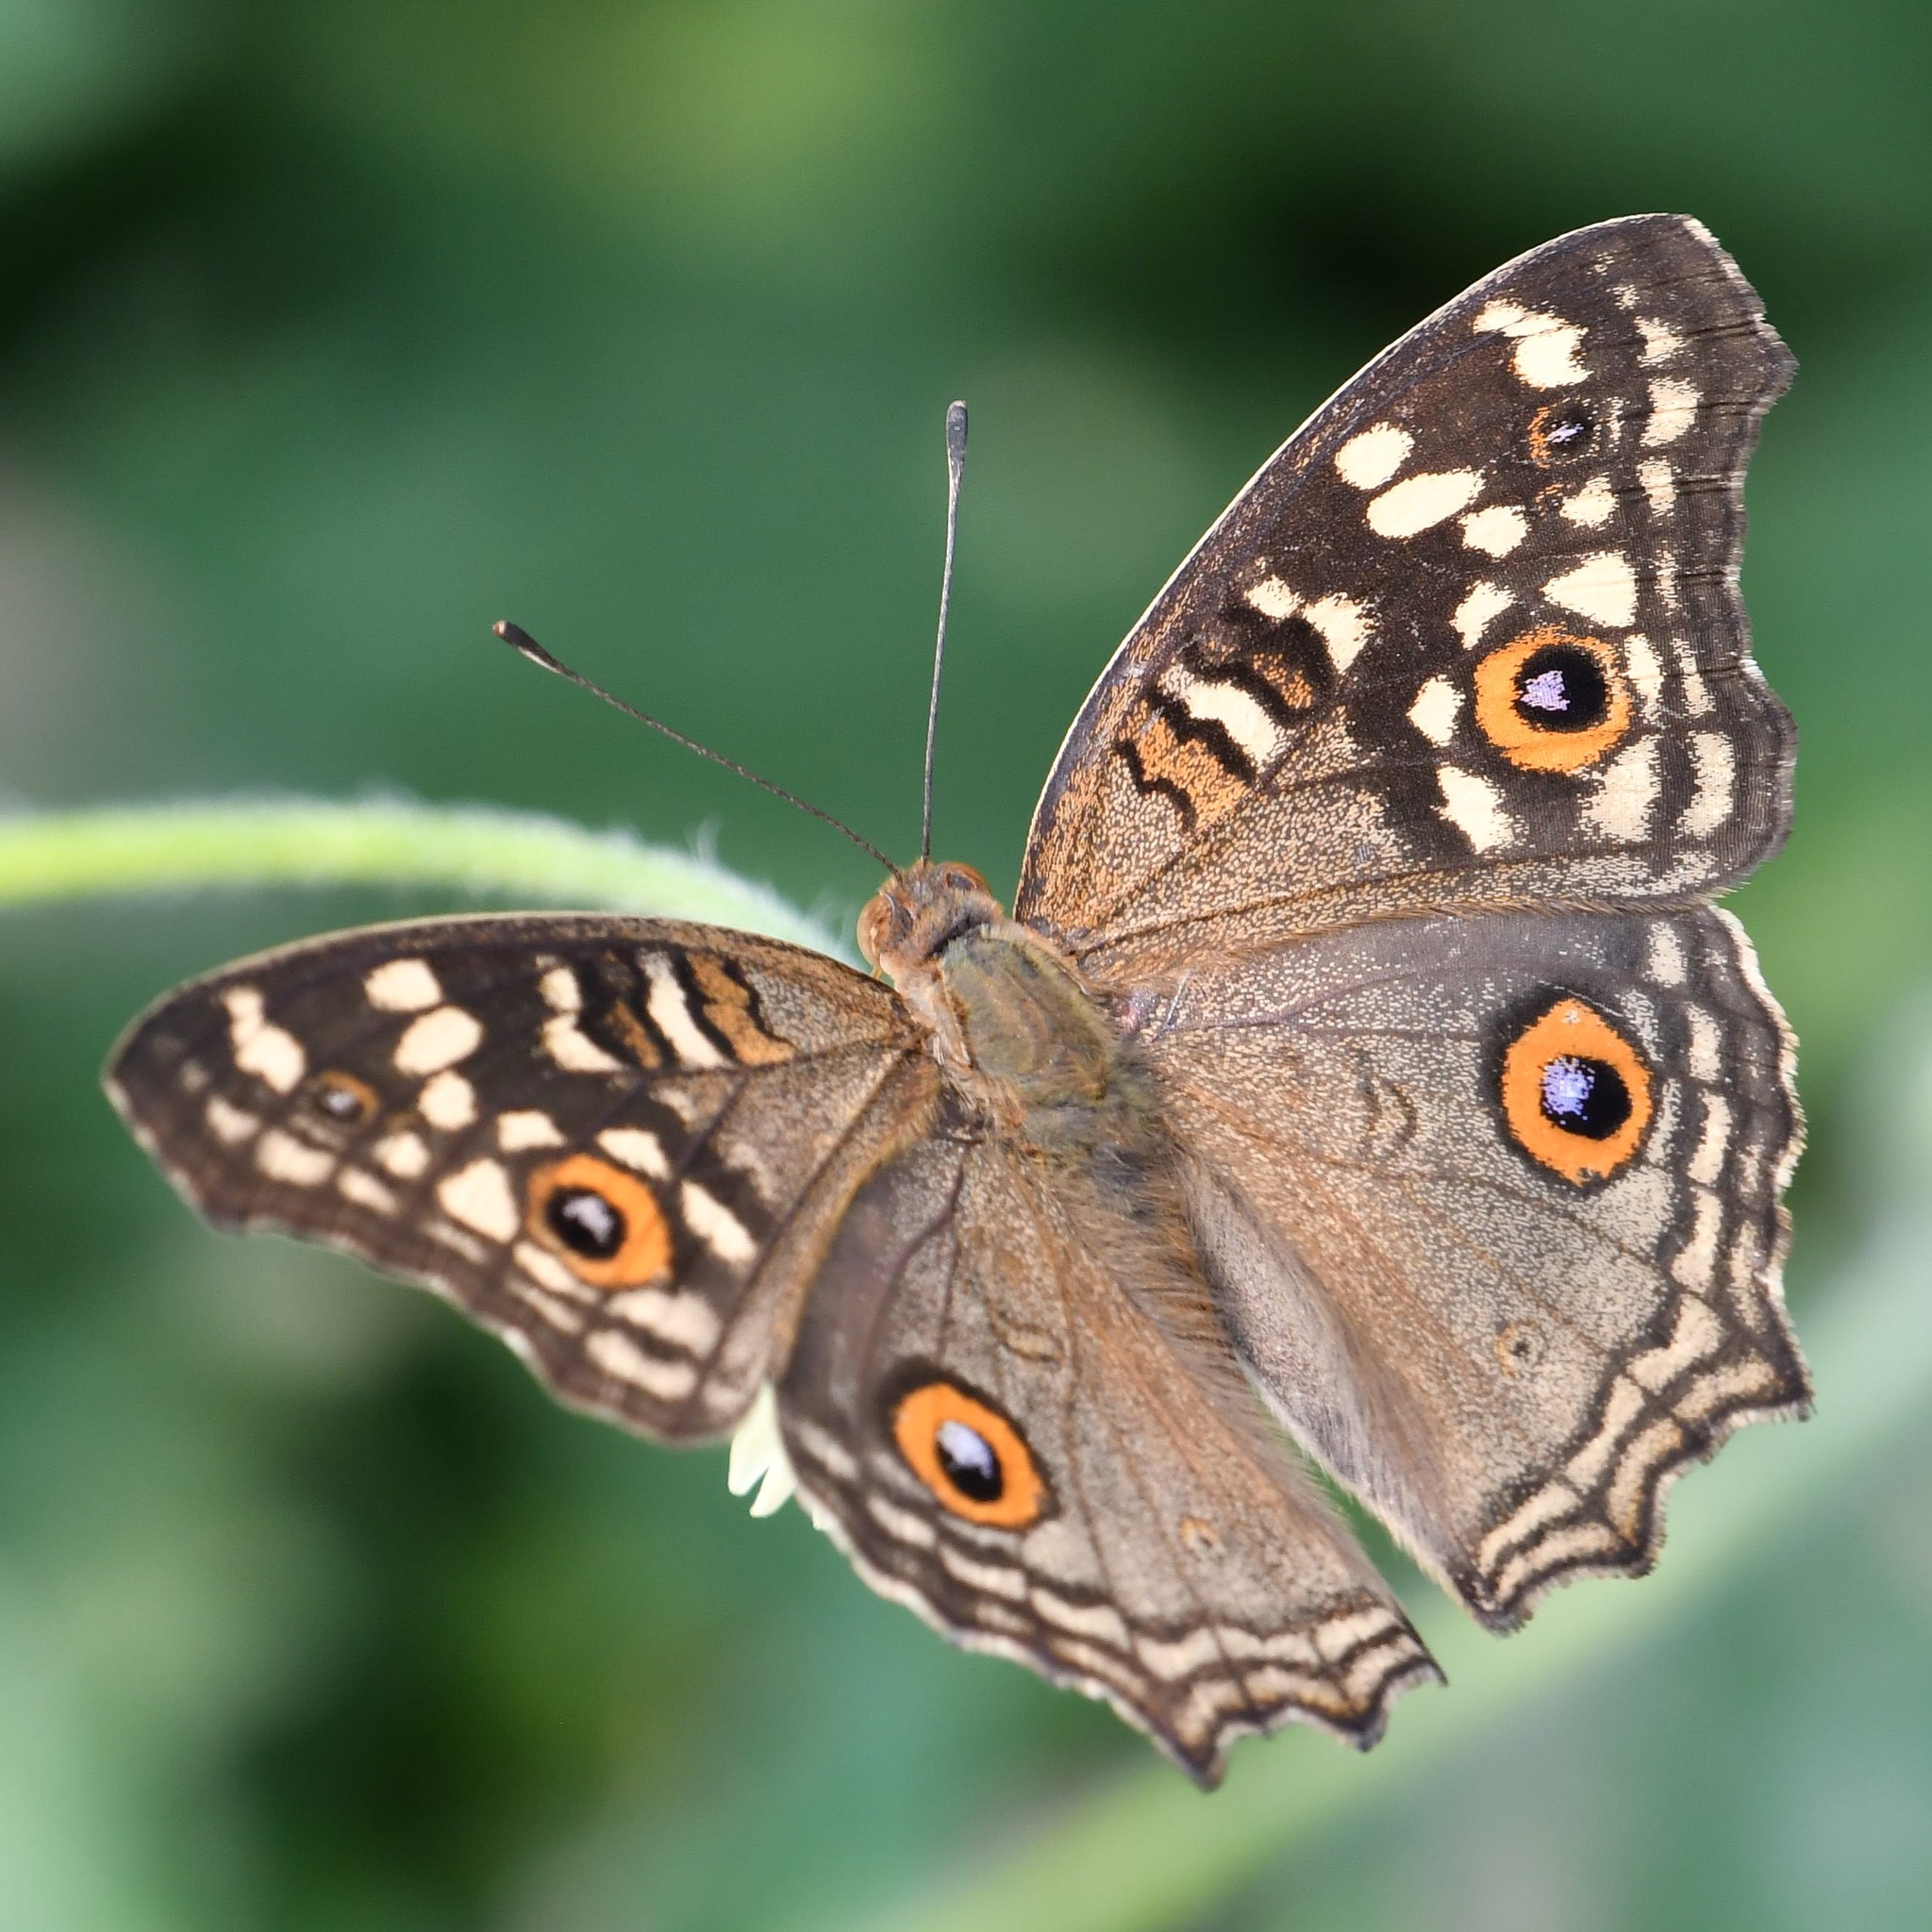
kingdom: Animalia
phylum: Arthropoda
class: Insecta
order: Lepidoptera
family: Nymphalidae
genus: Junonia
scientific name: Junonia lemonias
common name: Lemon pansy
